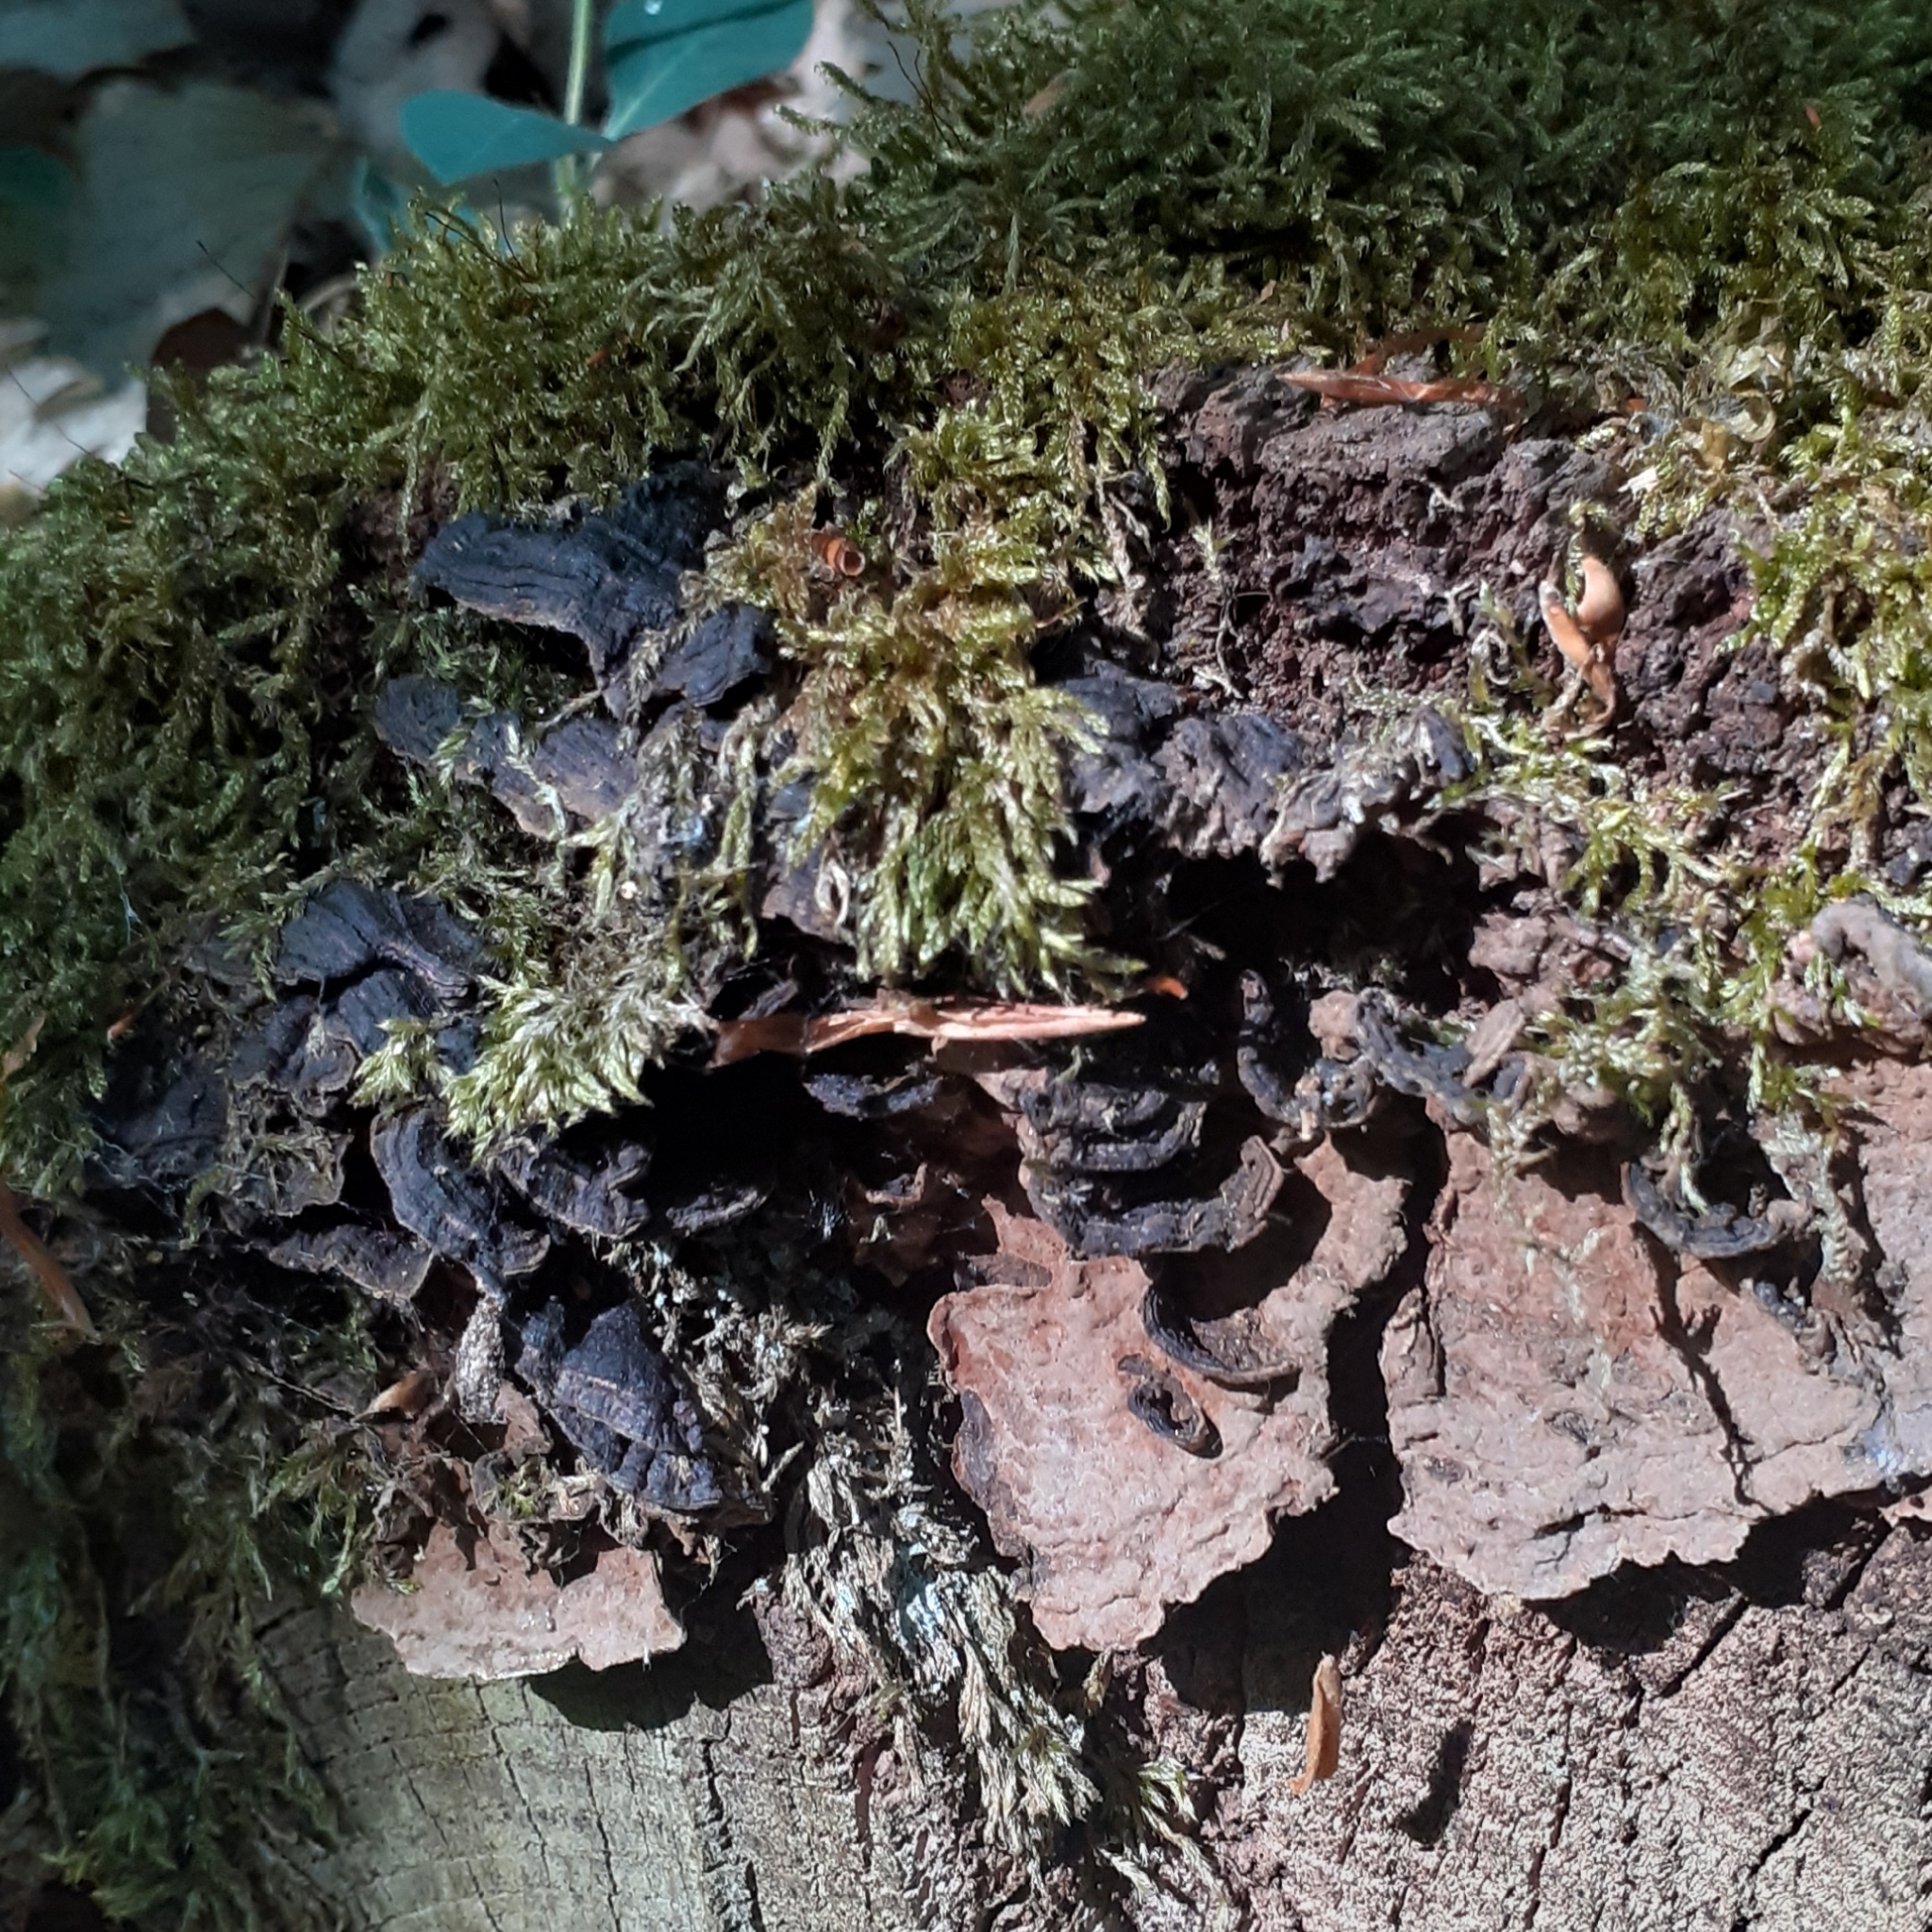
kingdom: Fungi
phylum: Basidiomycota
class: Agaricomycetes
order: Hymenochaetales
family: Hymenochaetaceae
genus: Hymenochaete
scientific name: Hymenochaete rubiginosa
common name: Oak curtain crust
